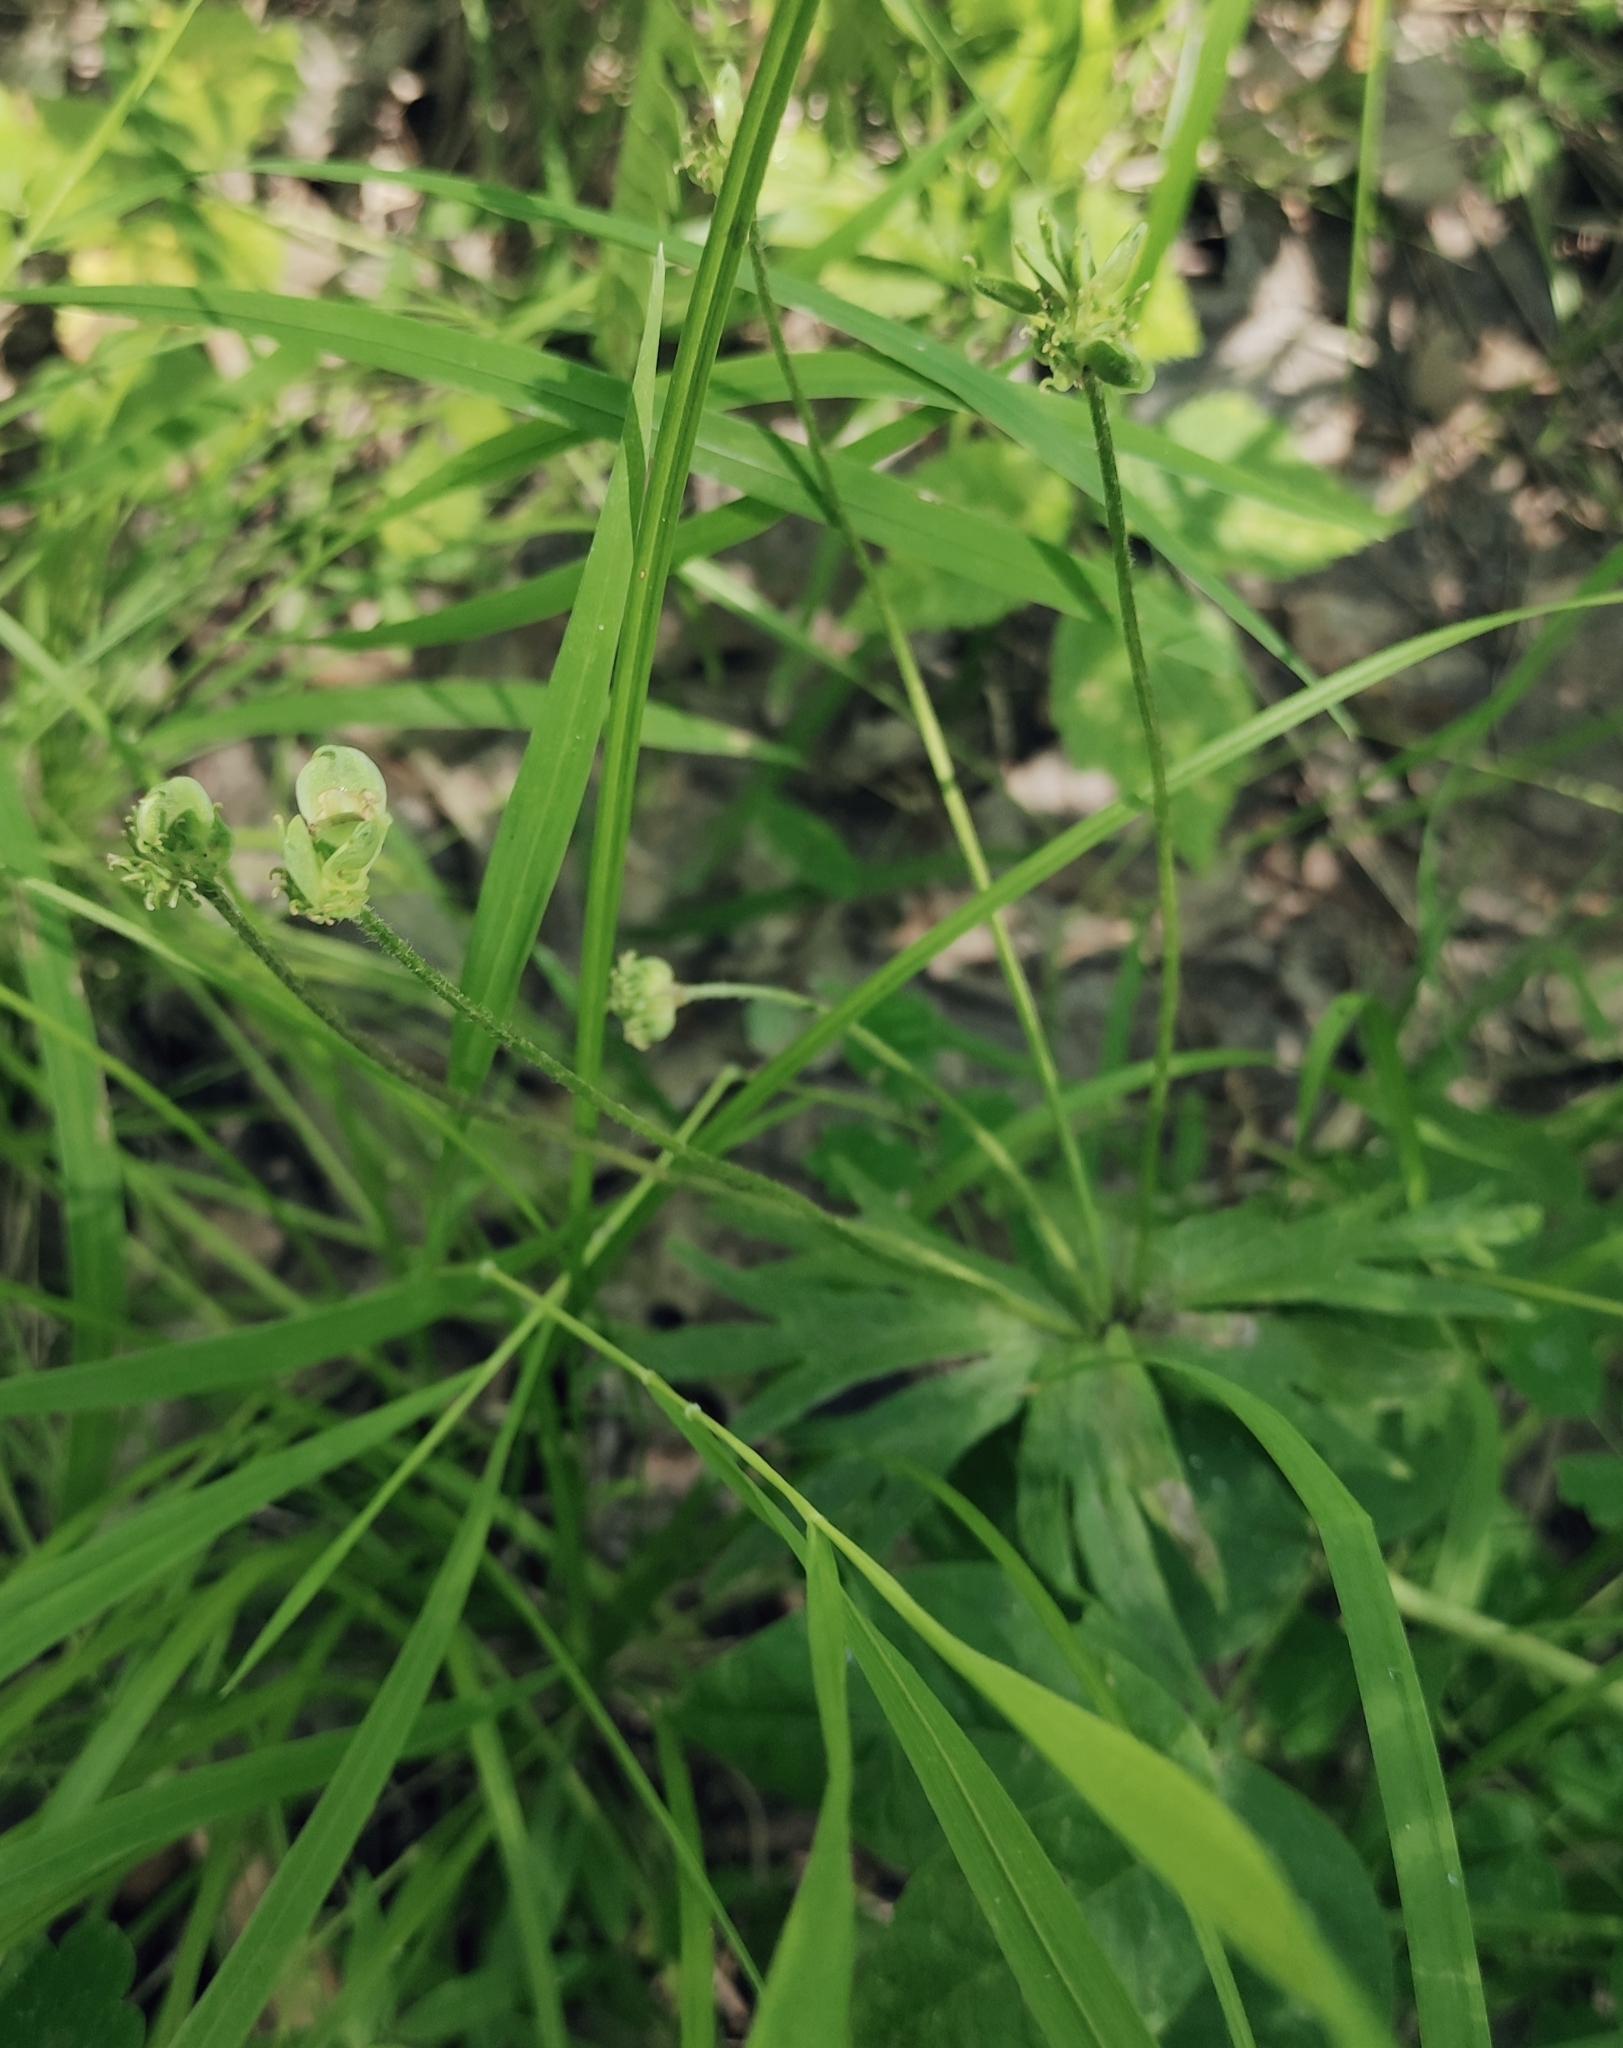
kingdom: Plantae
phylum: Tracheophyta
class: Magnoliopsida
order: Ranunculales
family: Ranunculaceae
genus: Anemonastrum
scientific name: Anemonastrum narcissiflorum
